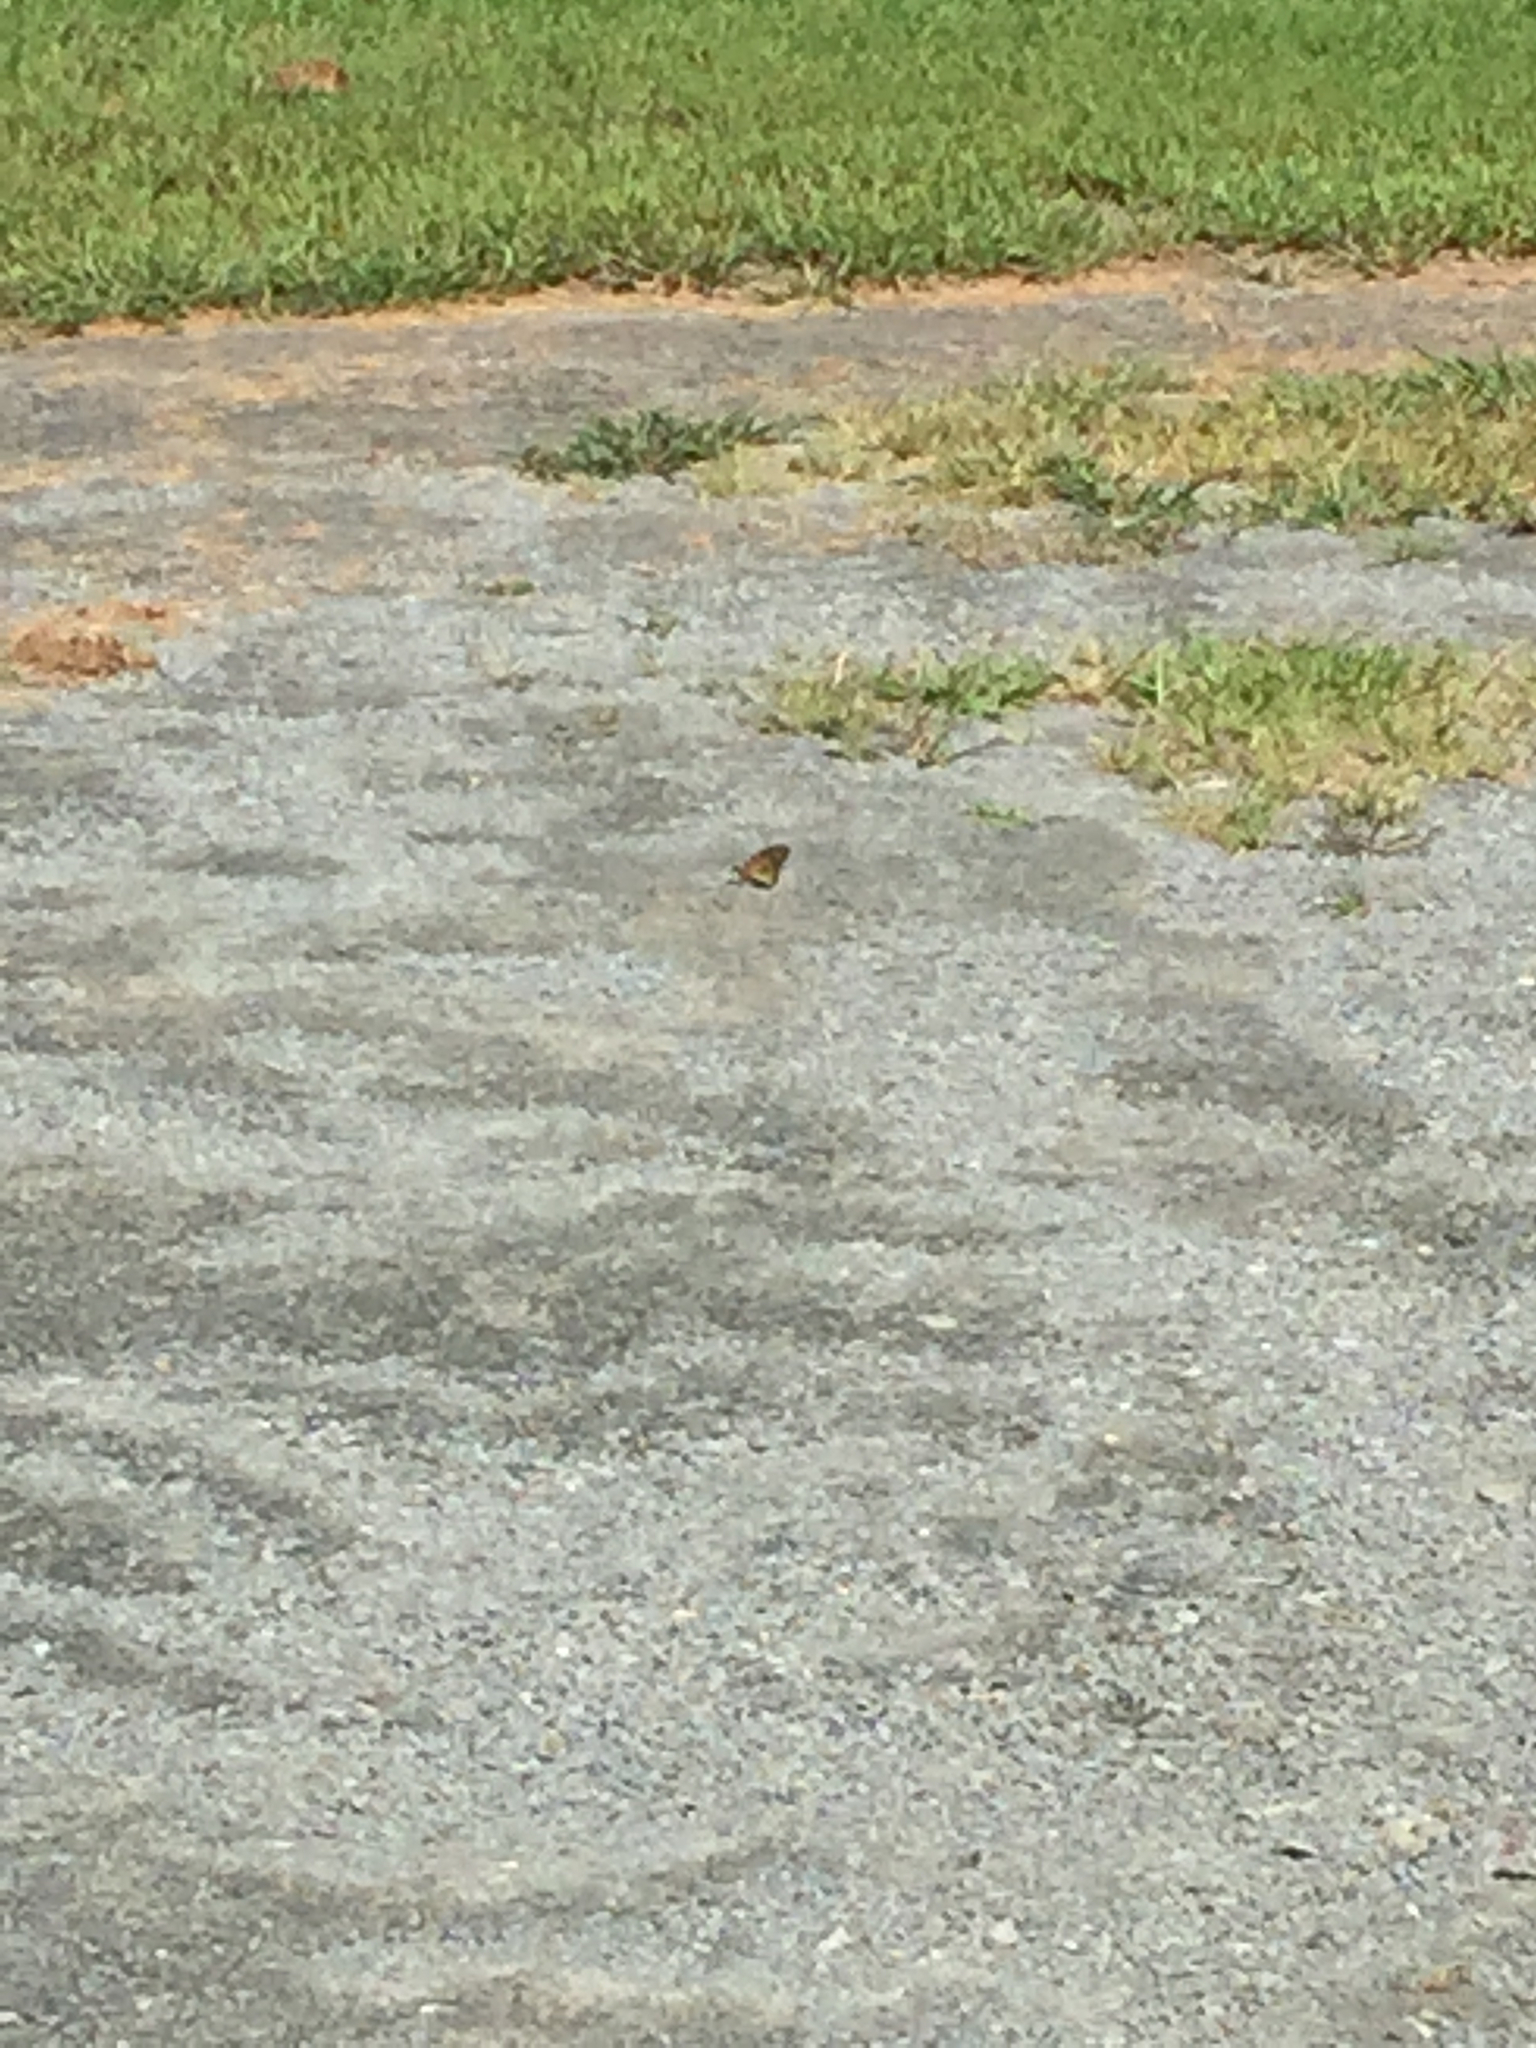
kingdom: Animalia
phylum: Arthropoda
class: Insecta
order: Lepidoptera
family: Nymphalidae
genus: Danaus
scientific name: Danaus plexippus
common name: Monarch
